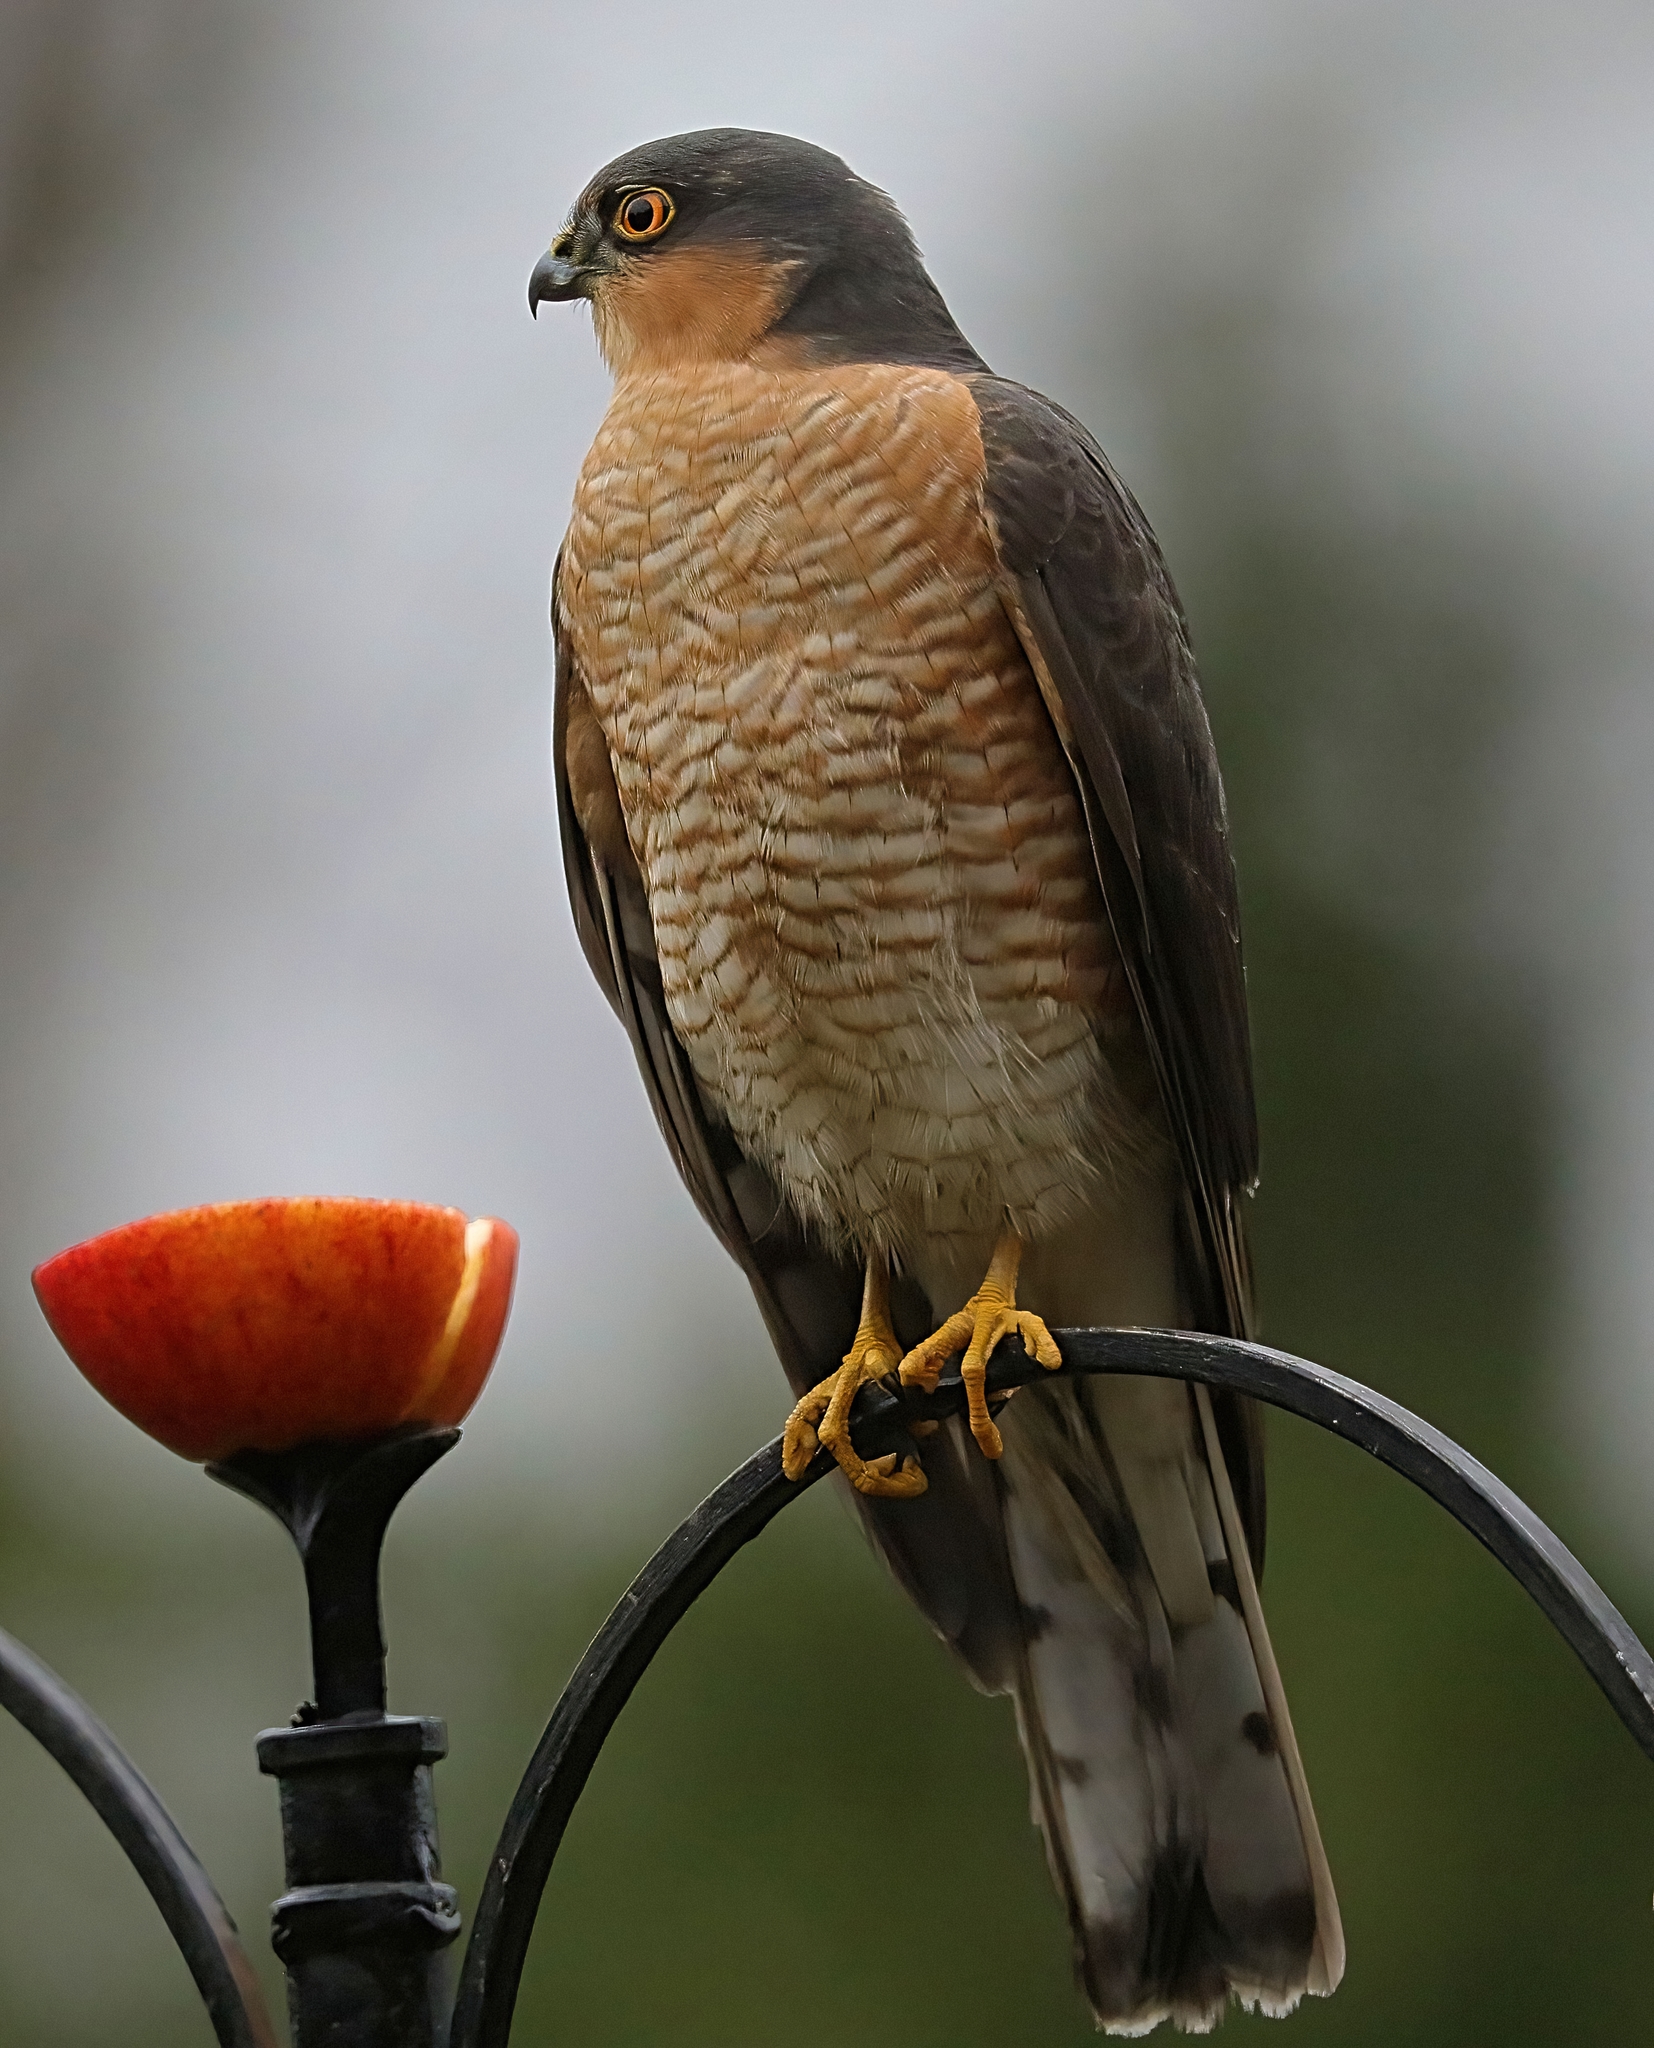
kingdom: Animalia
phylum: Chordata
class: Aves
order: Accipitriformes
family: Accipitridae
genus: Accipiter
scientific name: Accipiter nisus
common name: Eurasian sparrowhawk
